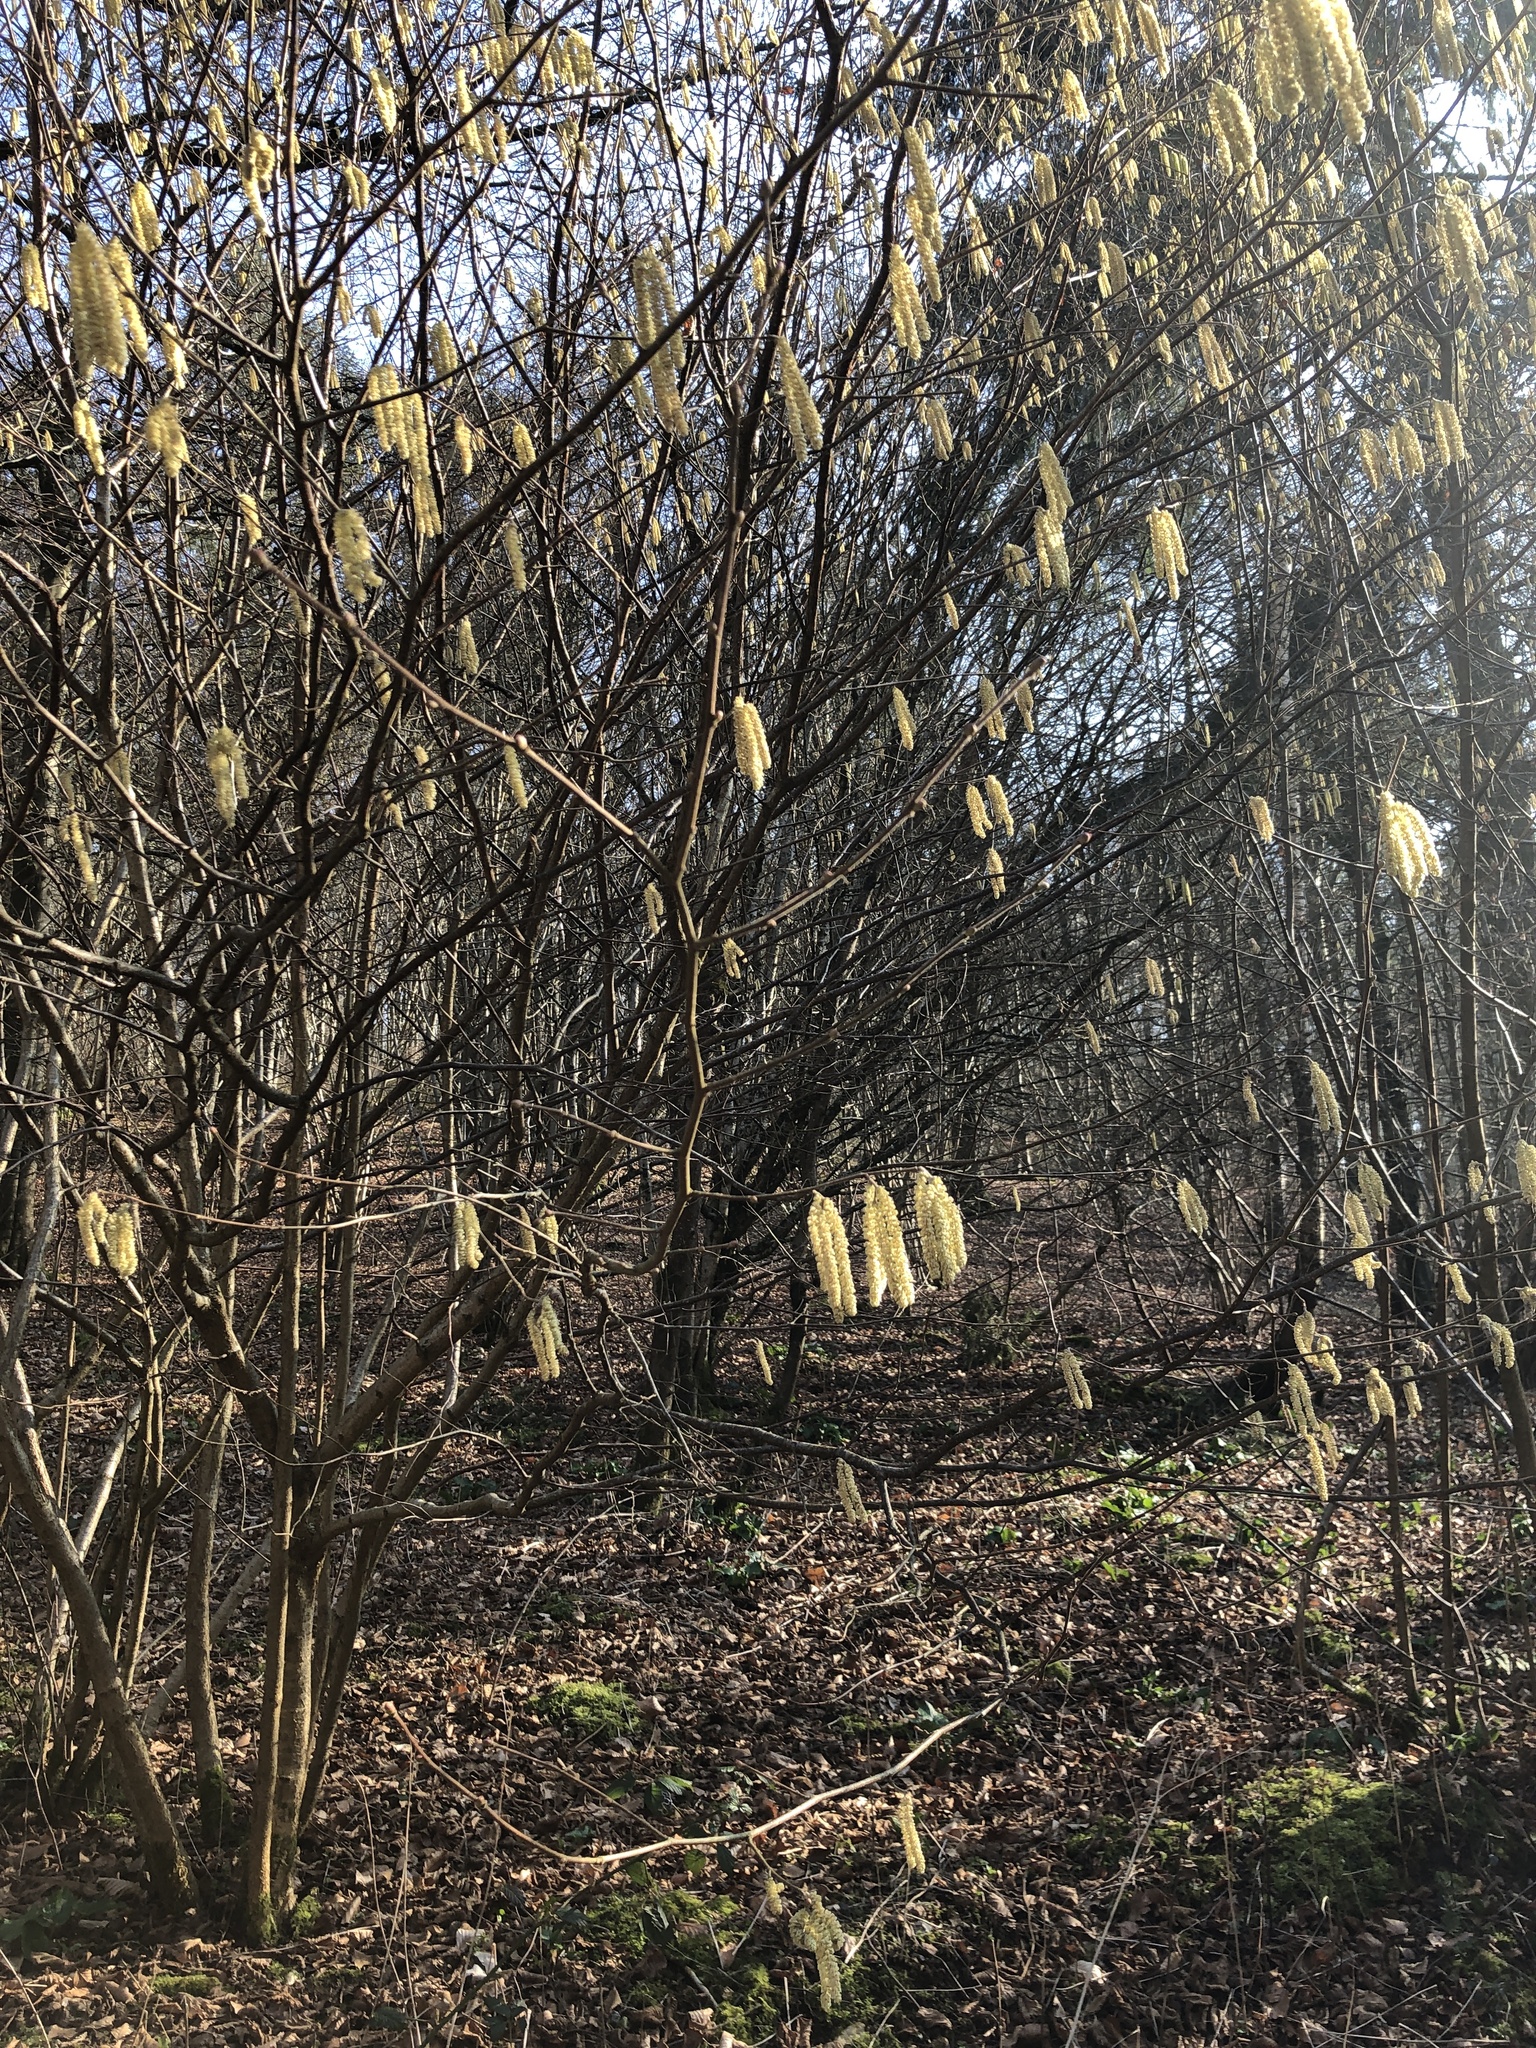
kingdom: Plantae
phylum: Tracheophyta
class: Magnoliopsida
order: Fagales
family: Betulaceae
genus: Corylus
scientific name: Corylus avellana
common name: European hazel
